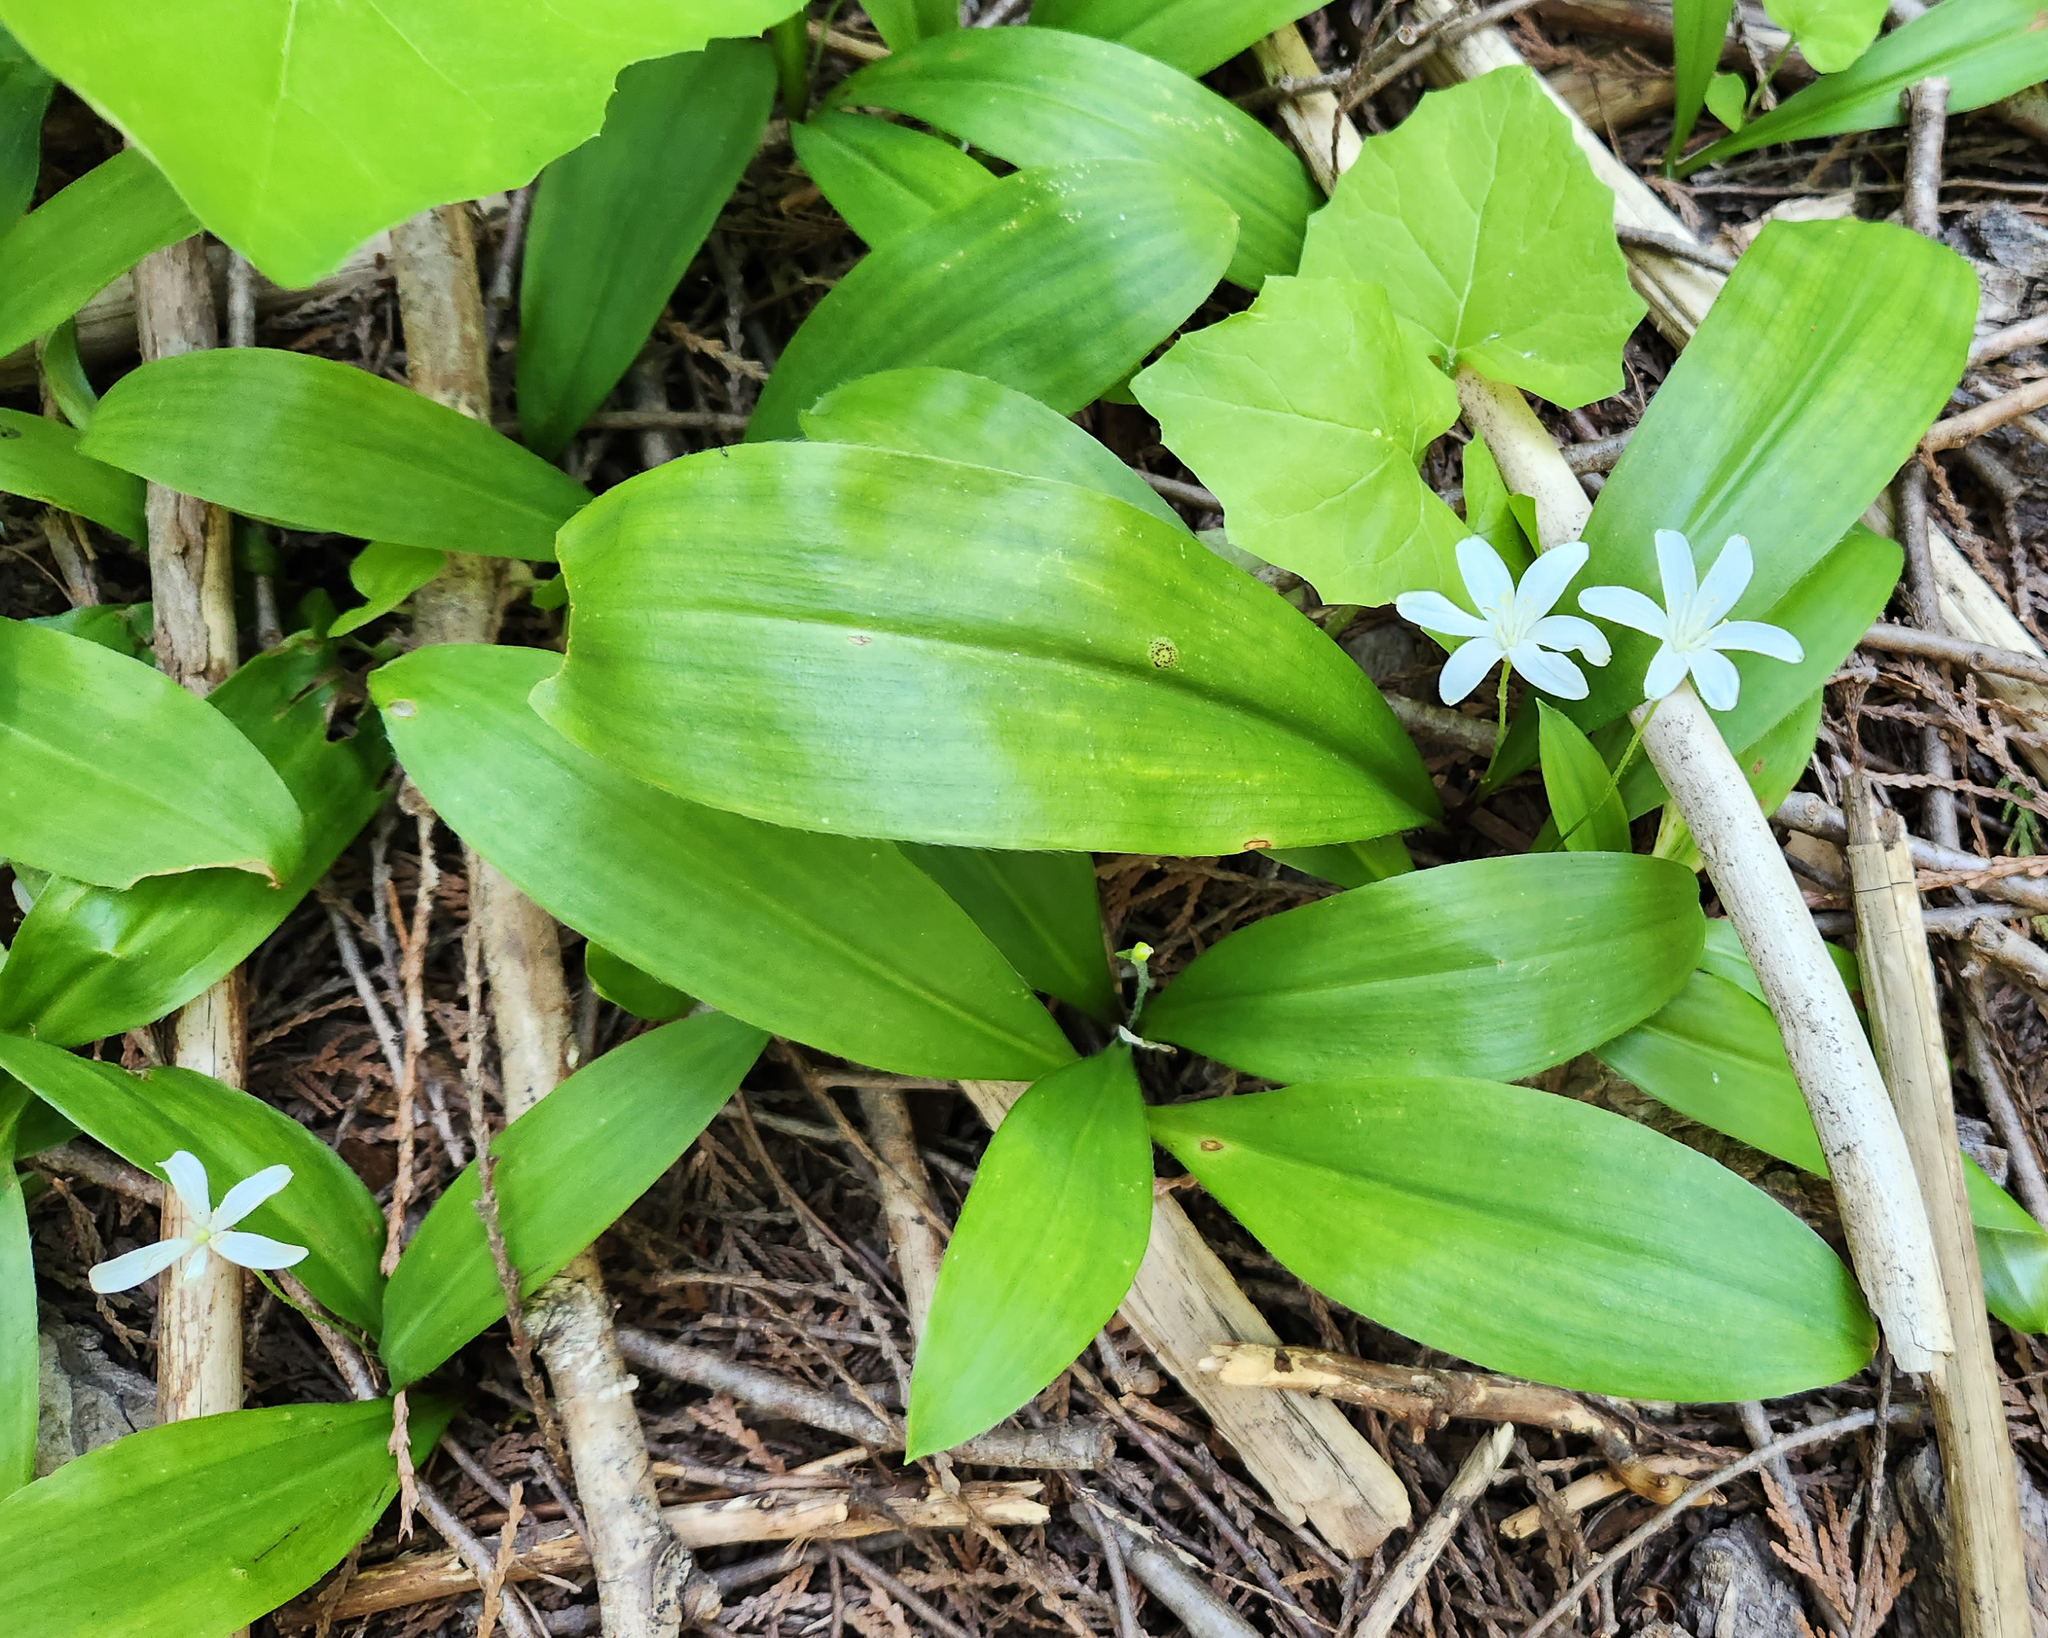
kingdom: Plantae
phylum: Tracheophyta
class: Liliopsida
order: Liliales
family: Liliaceae
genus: Clintonia
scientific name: Clintonia uniflora
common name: Queen's cup
